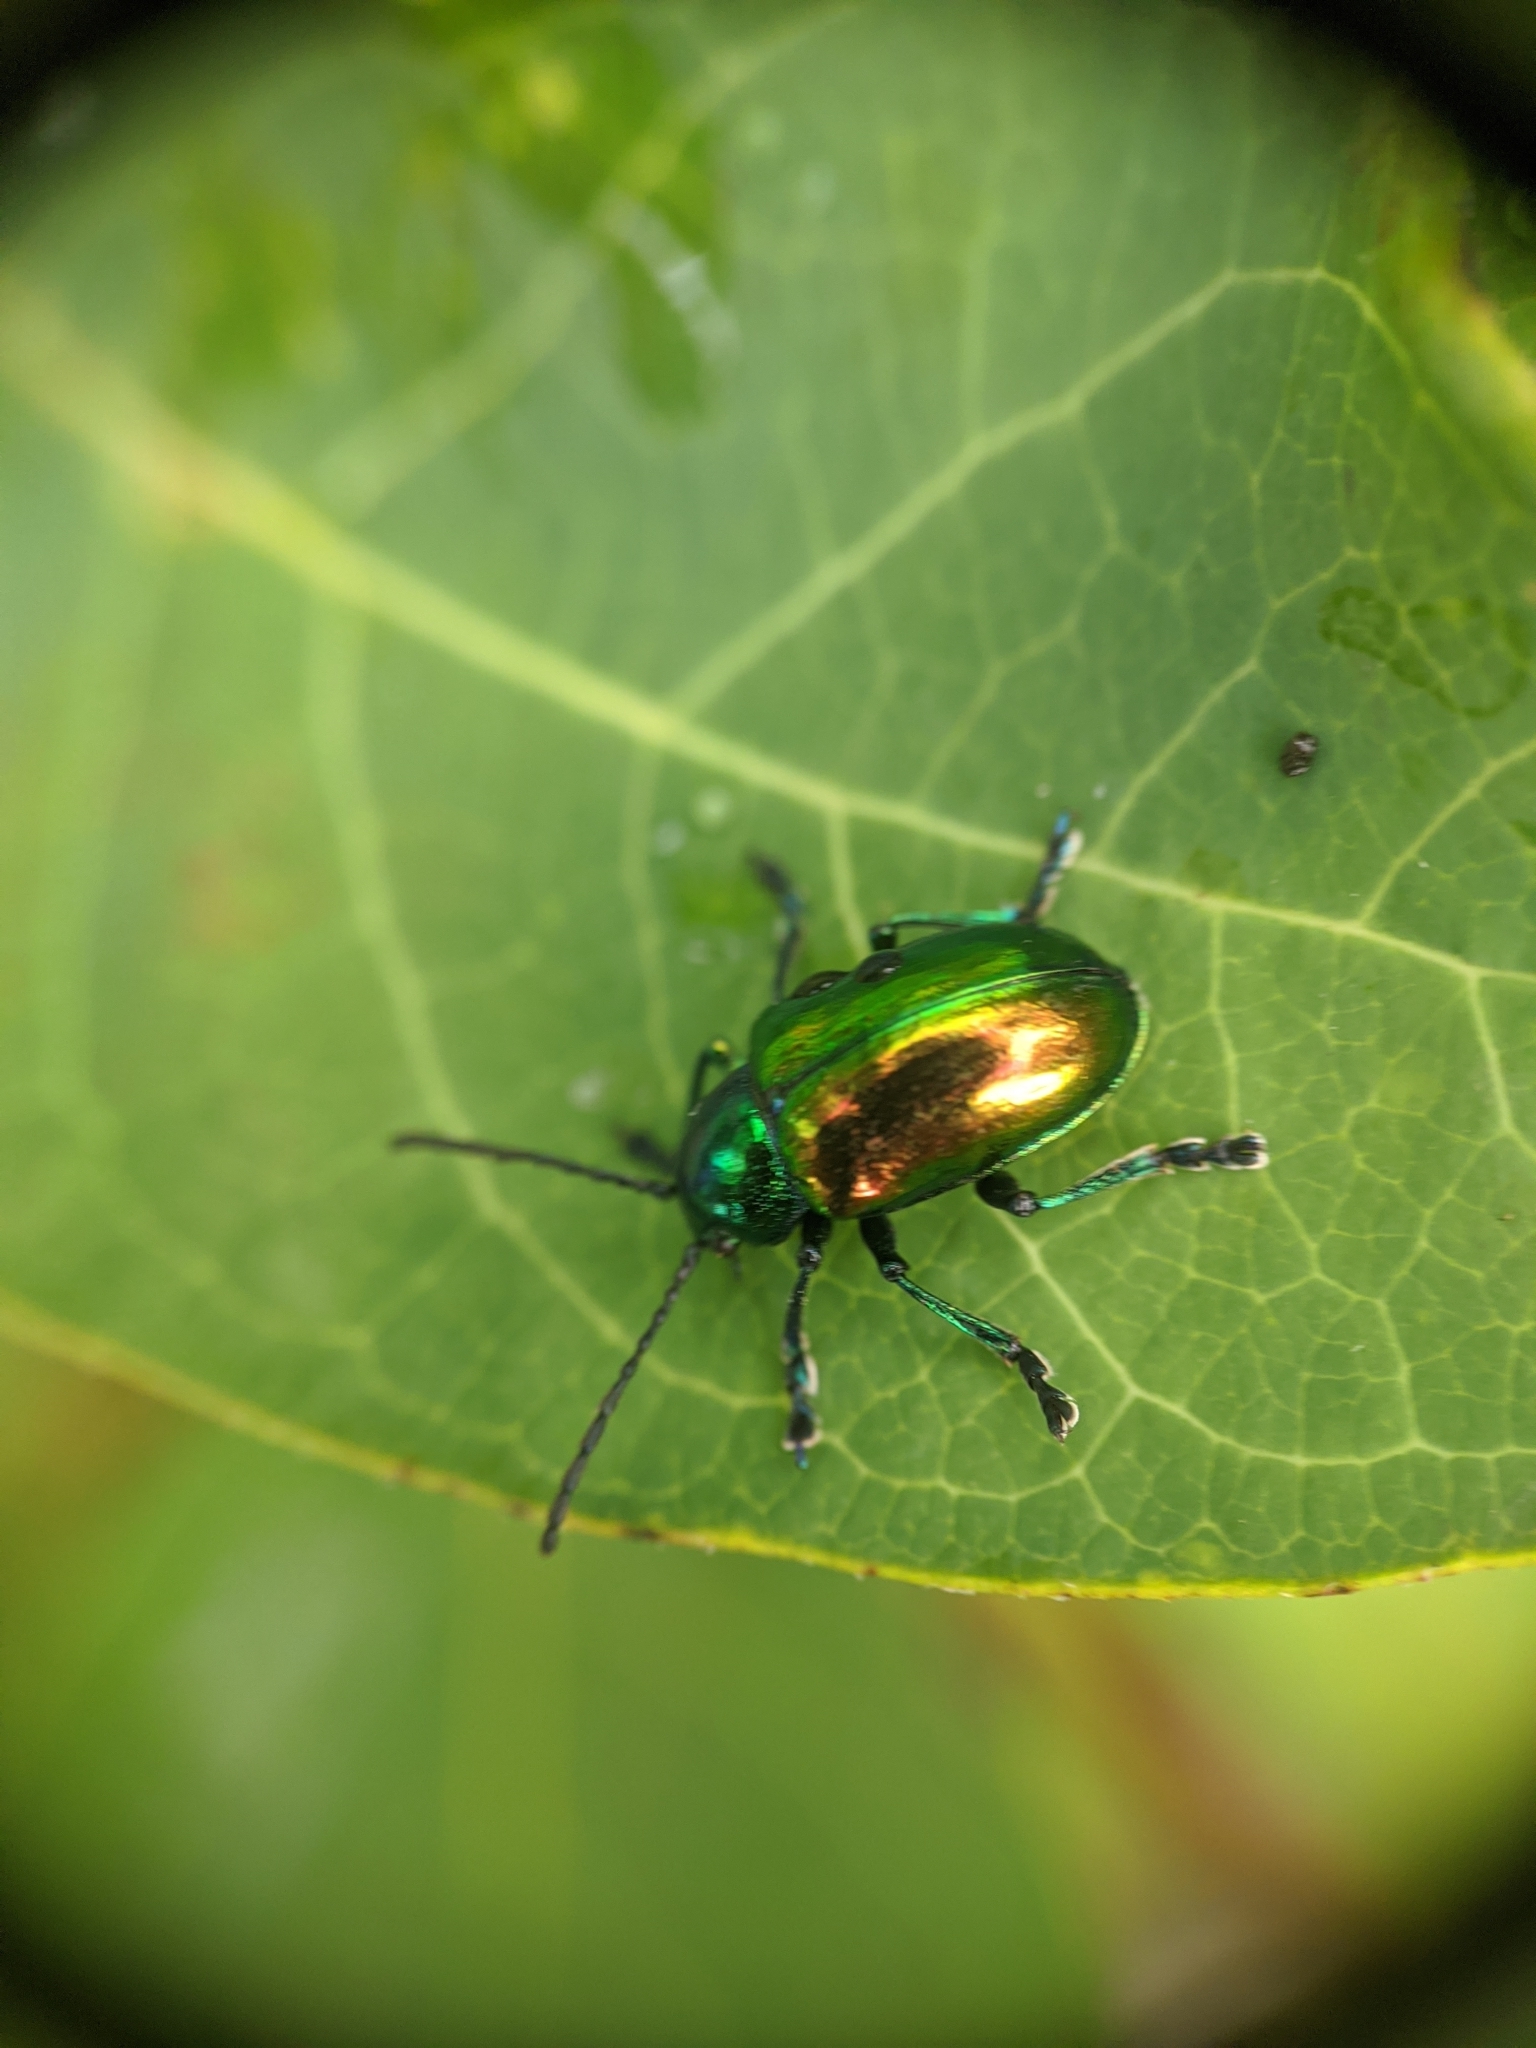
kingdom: Animalia
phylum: Arthropoda
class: Insecta
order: Coleoptera
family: Chrysomelidae
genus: Chrysochus
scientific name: Chrysochus auratus
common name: Dogbane leaf beetle
